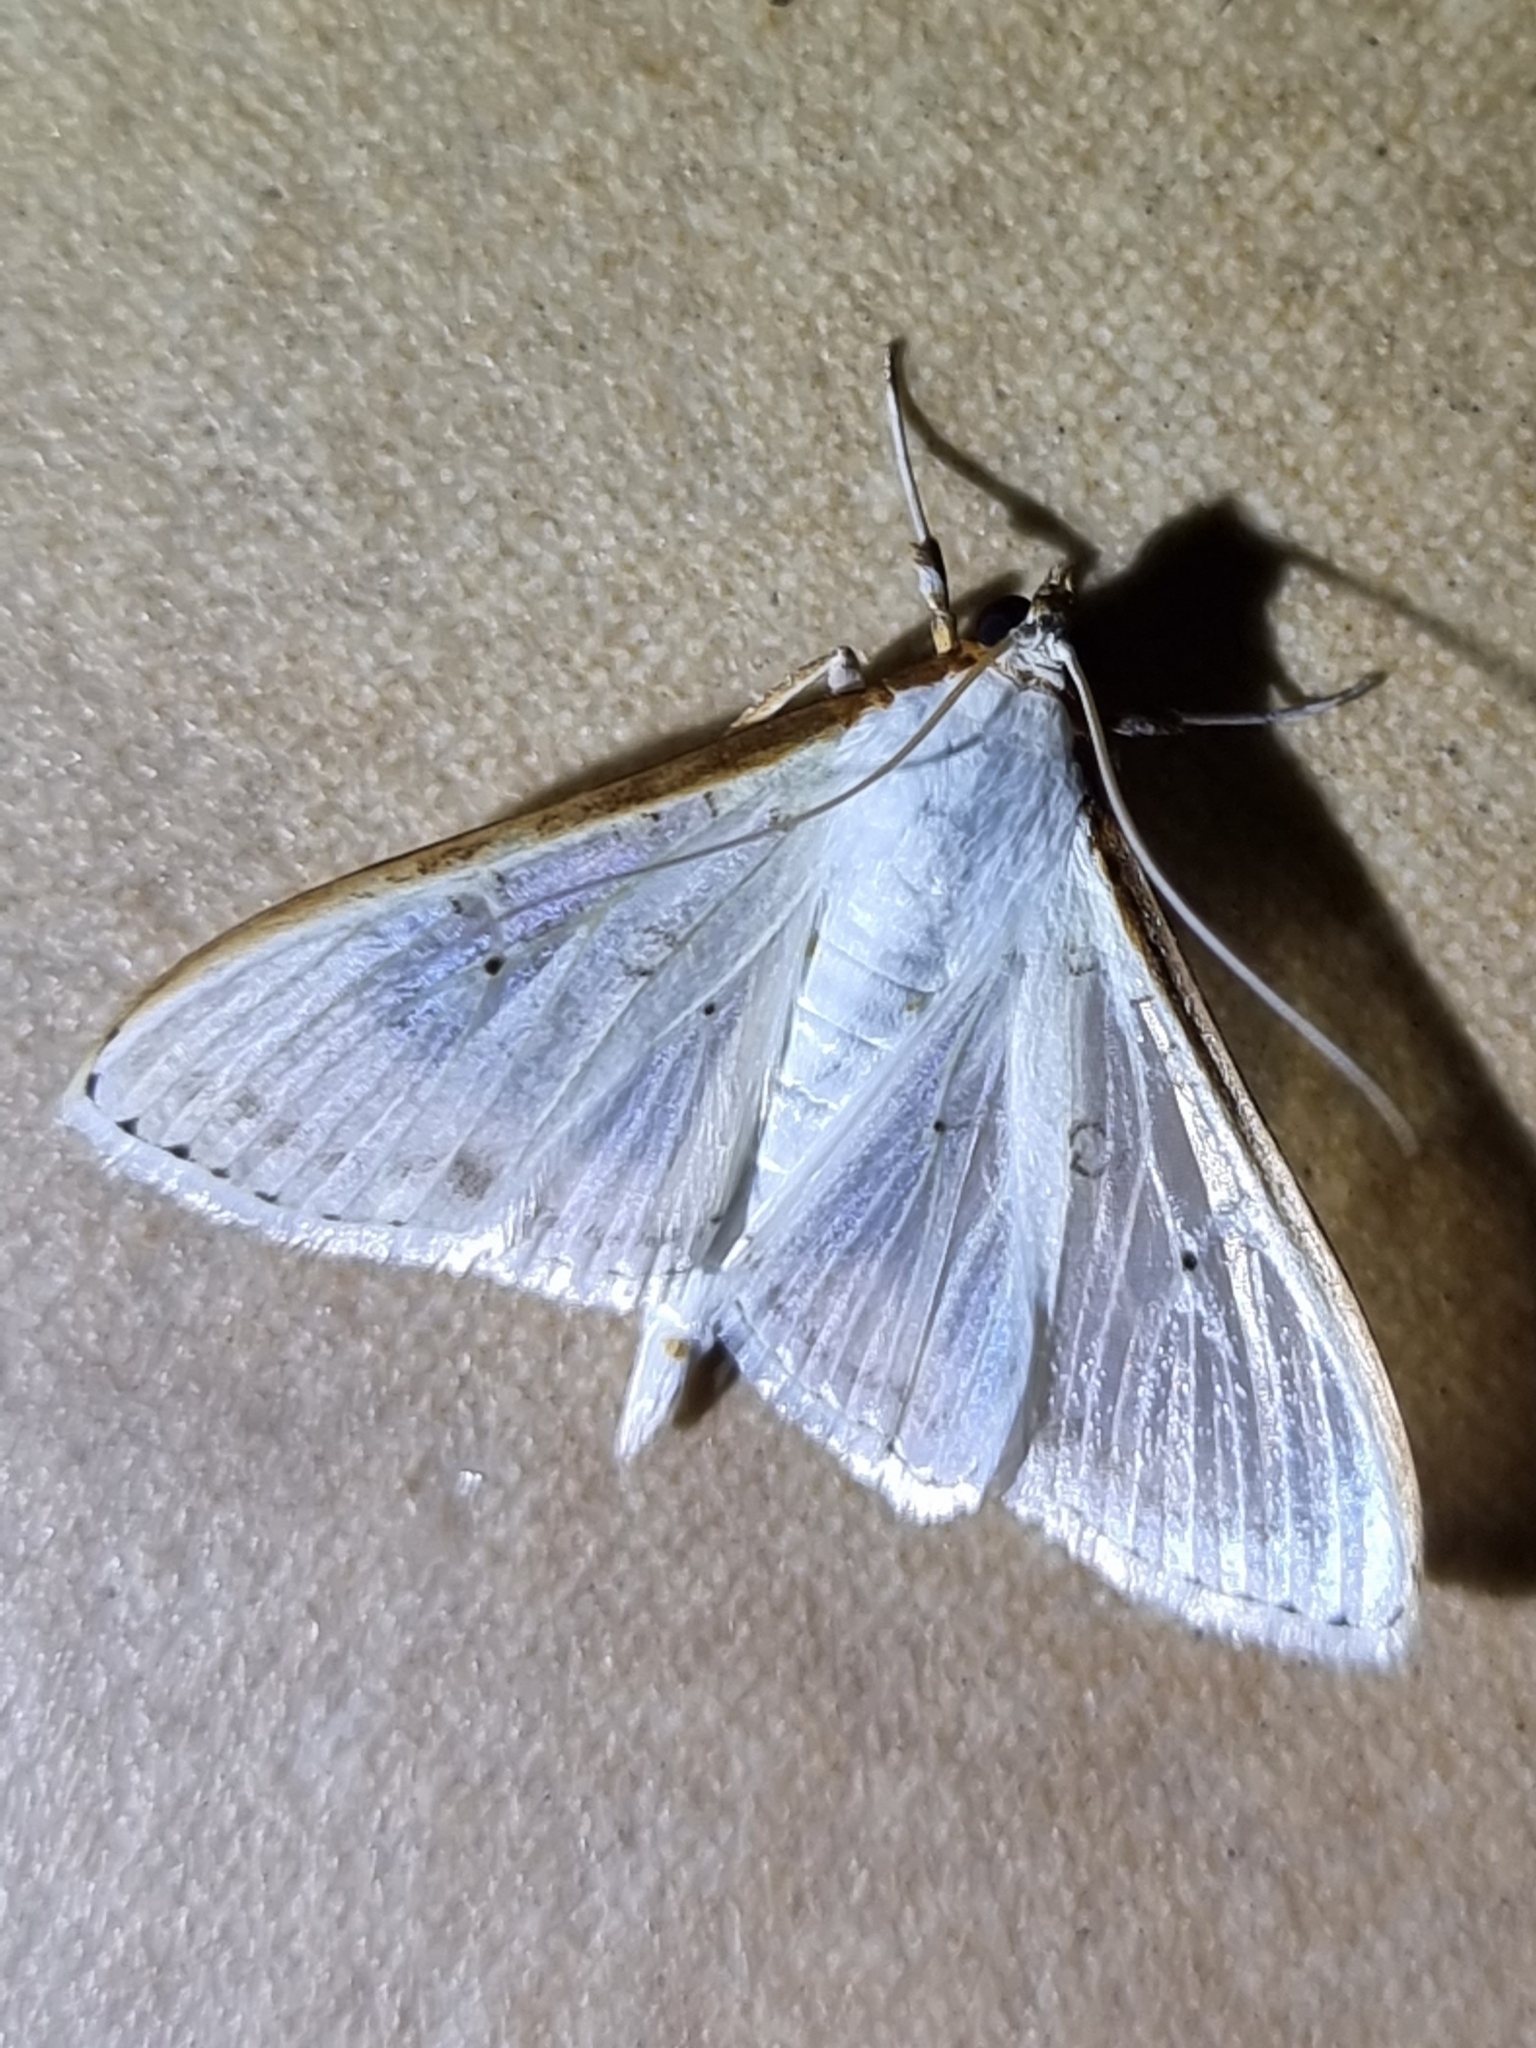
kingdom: Animalia
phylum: Arthropoda
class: Insecta
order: Lepidoptera
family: Crambidae
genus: Palpita
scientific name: Palpita pratti
